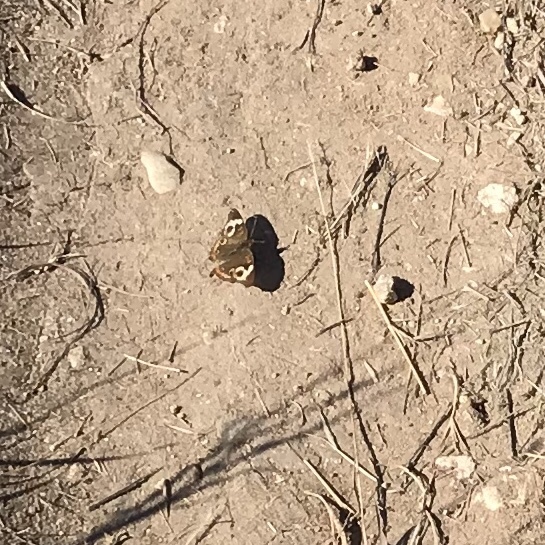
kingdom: Animalia
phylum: Arthropoda
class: Insecta
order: Lepidoptera
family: Nymphalidae
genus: Junonia
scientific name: Junonia coenia
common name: Common buckeye
